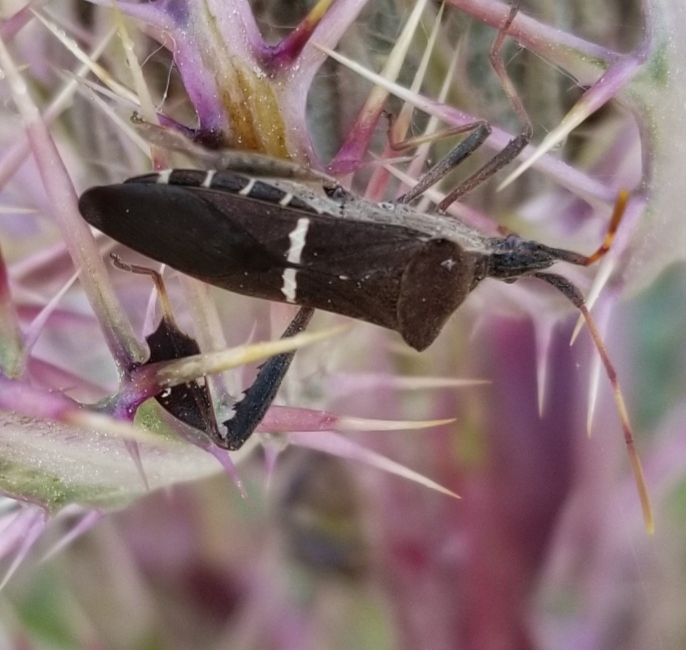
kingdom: Animalia
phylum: Arthropoda
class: Insecta
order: Hemiptera
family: Coreidae
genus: Leptoglossus
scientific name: Leptoglossus phyllopus
